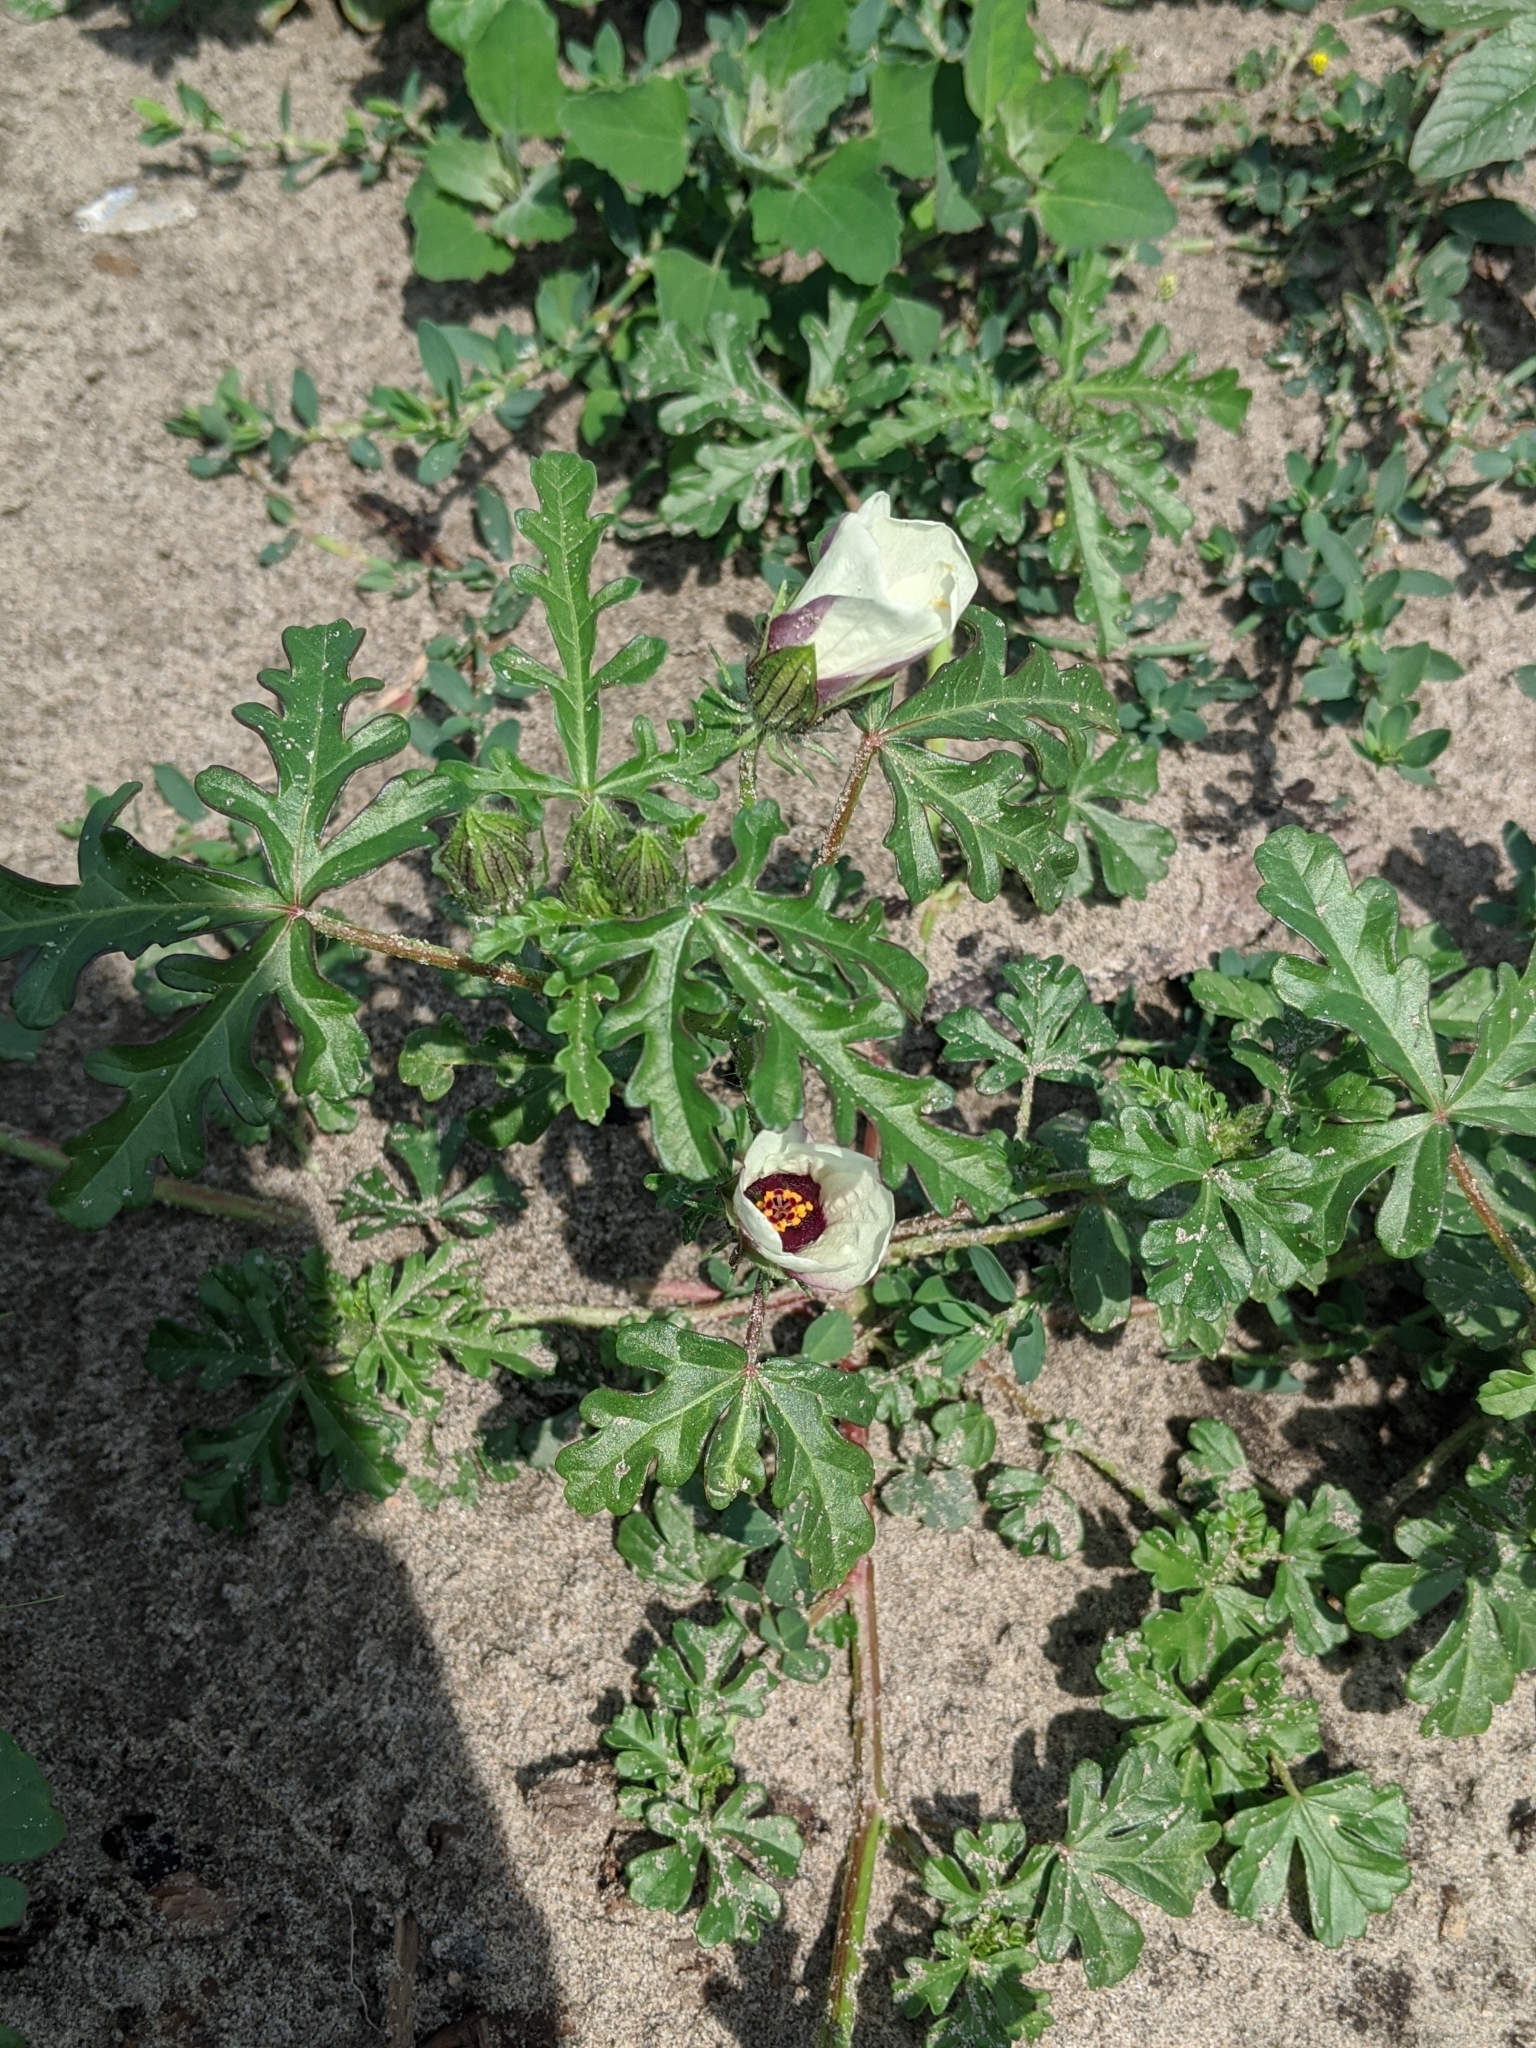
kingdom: Plantae
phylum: Tracheophyta
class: Magnoliopsida
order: Malvales
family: Malvaceae
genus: Hibiscus
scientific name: Hibiscus trionum
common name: Bladder ketmia
